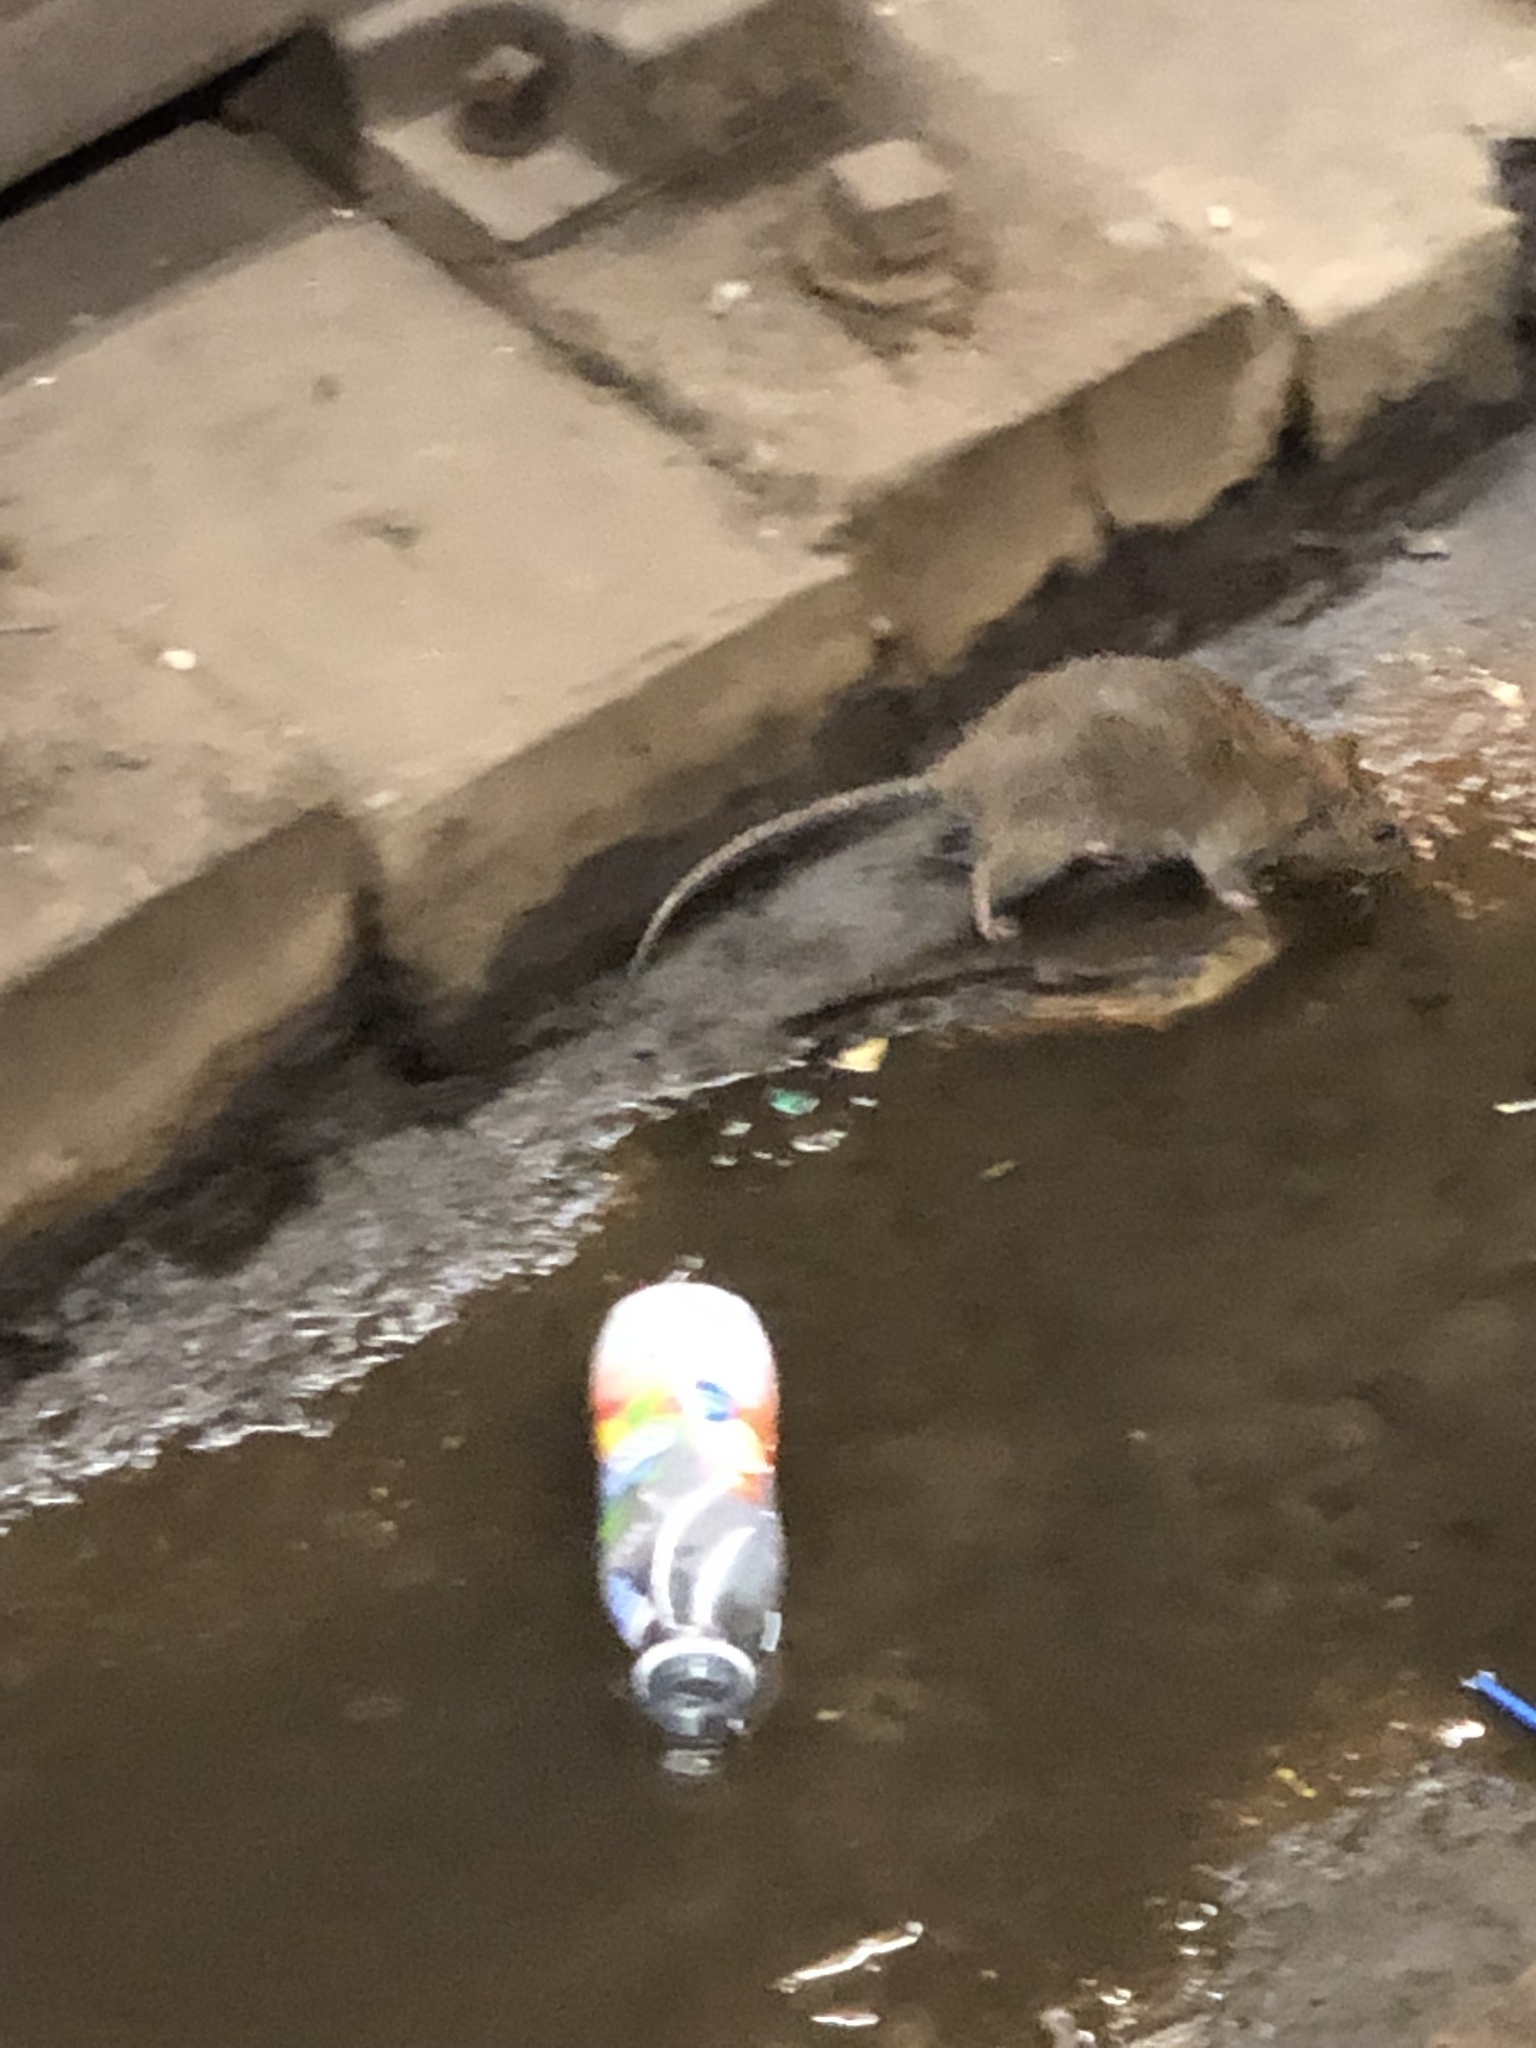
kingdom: Animalia
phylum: Chordata
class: Mammalia
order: Rodentia
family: Muridae
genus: Rattus
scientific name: Rattus norvegicus
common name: Brown rat
